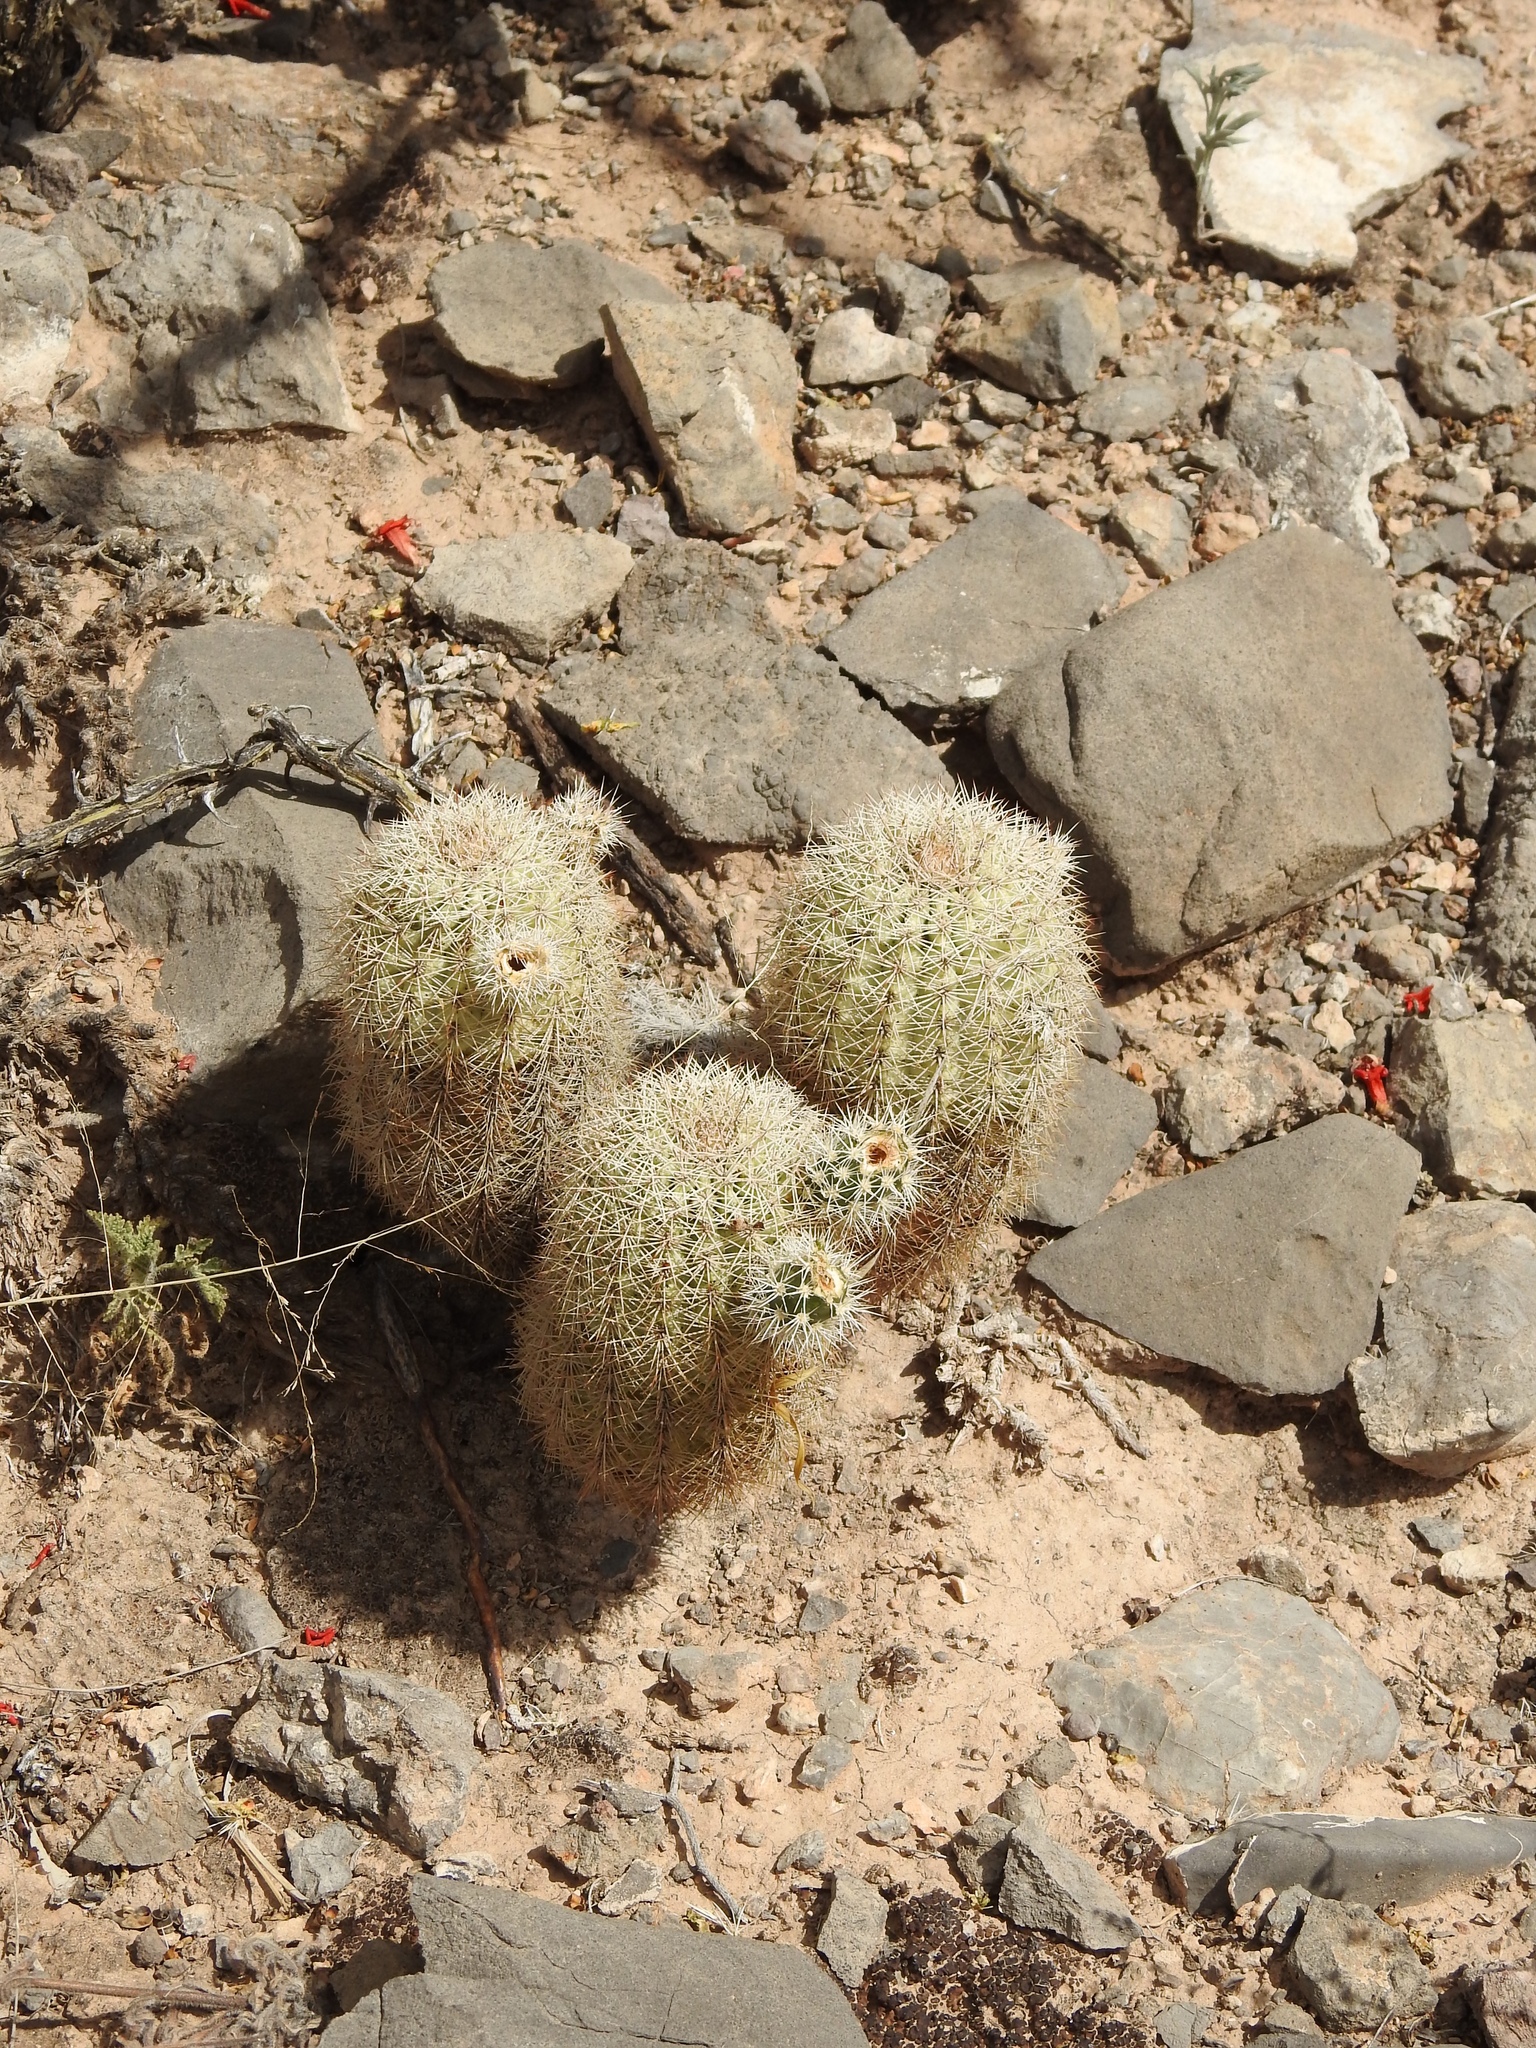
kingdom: Plantae
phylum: Tracheophyta
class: Magnoliopsida
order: Caryophyllales
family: Cactaceae
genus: Echinocereus
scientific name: Echinocereus dasyacanthus
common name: Spiny hedgehog cactus
